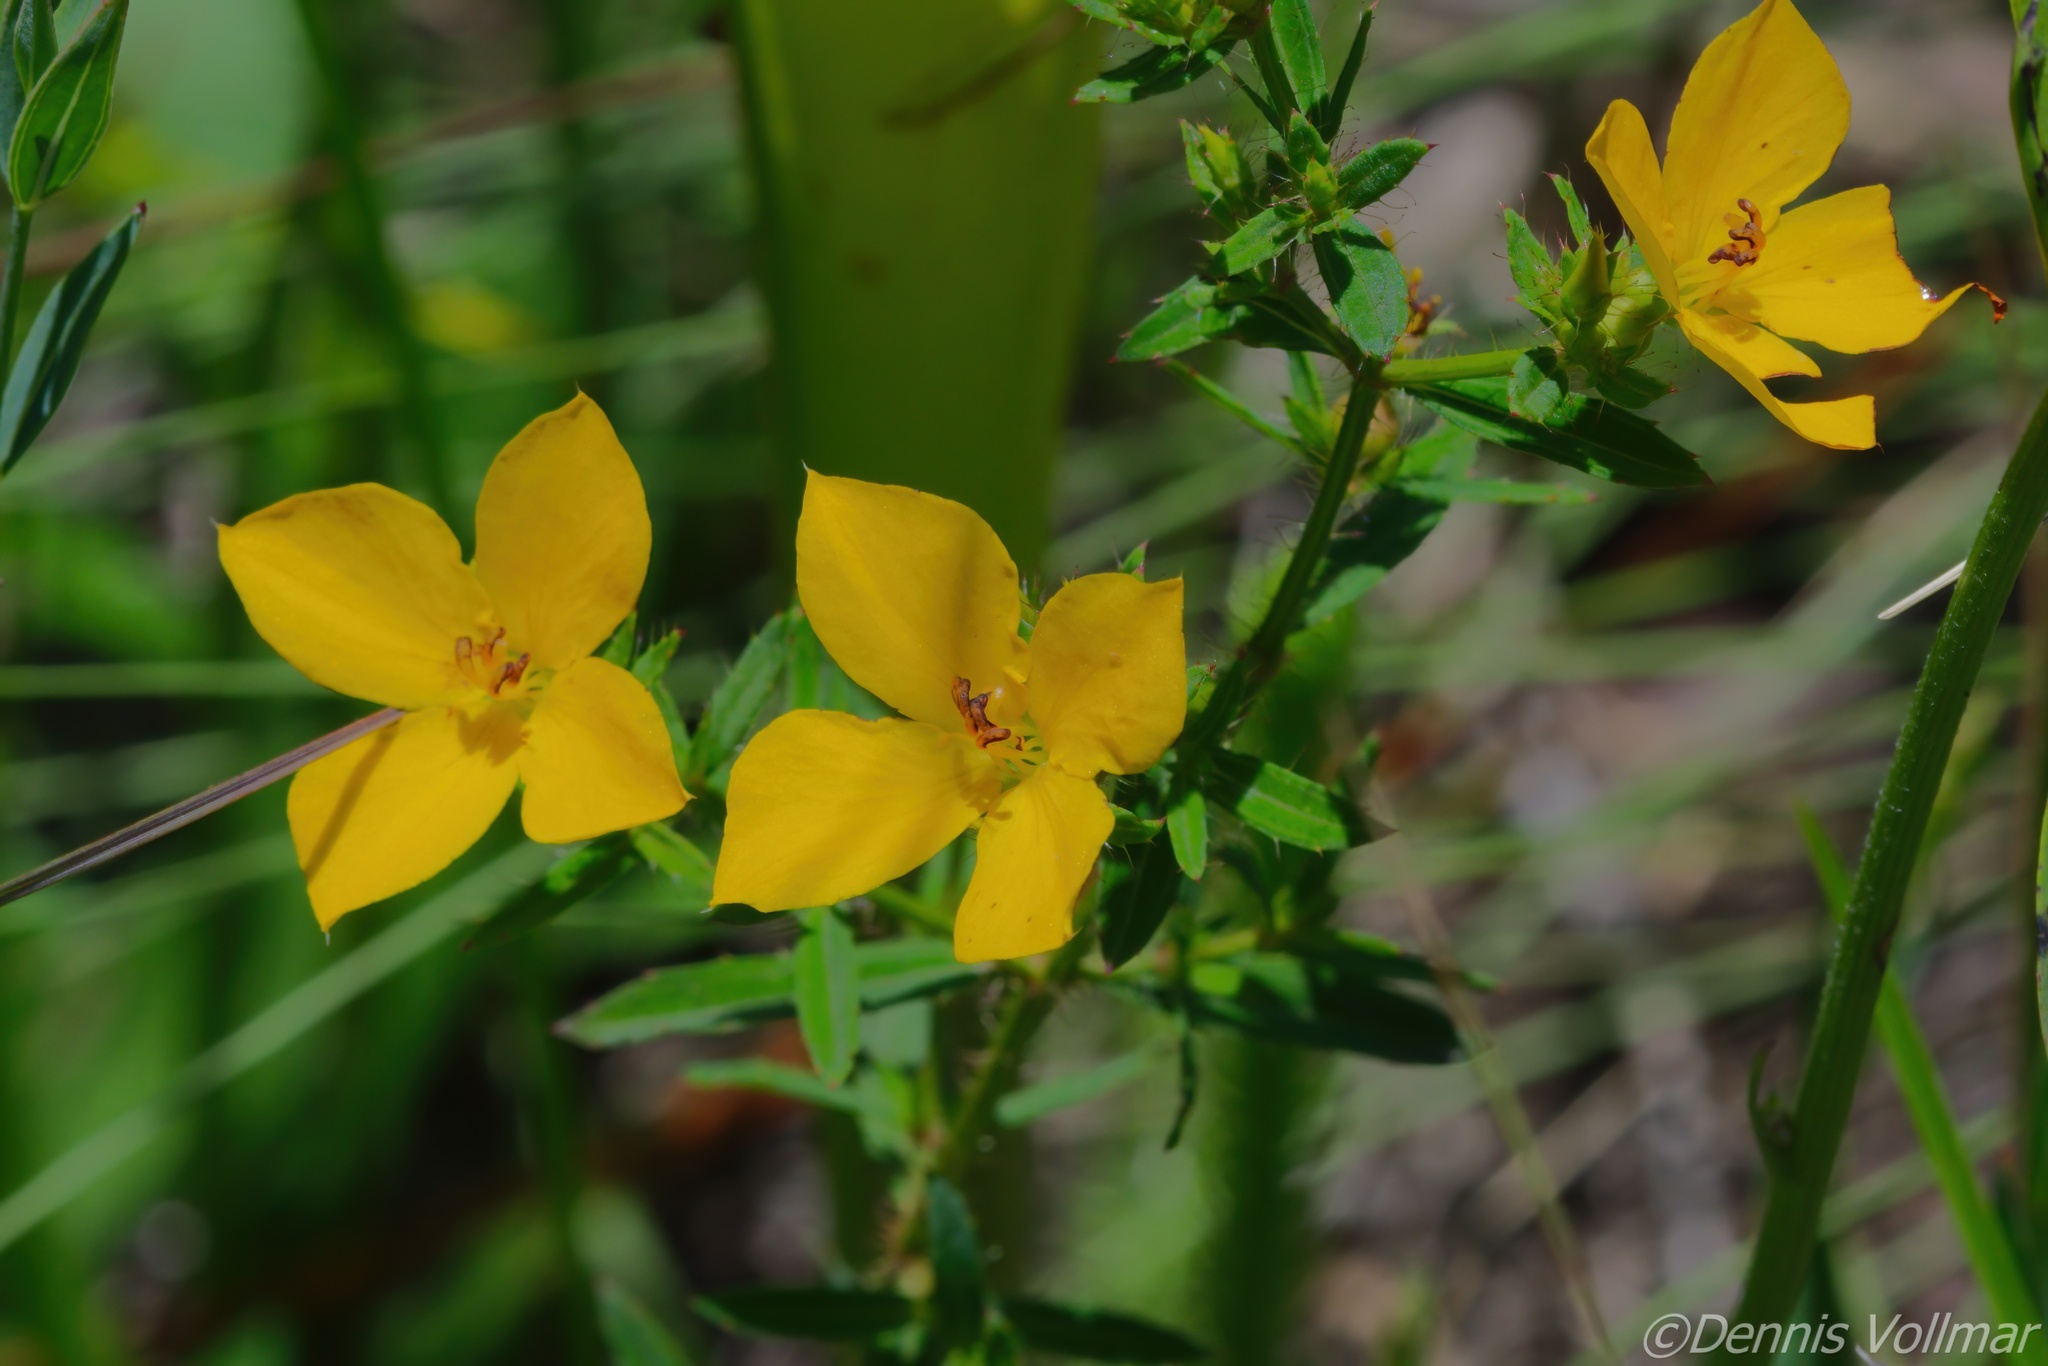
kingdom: Plantae
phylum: Tracheophyta
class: Magnoliopsida
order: Myrtales
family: Melastomataceae
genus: Rhexia
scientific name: Rhexia lutea
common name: Golden meadow-beauty
